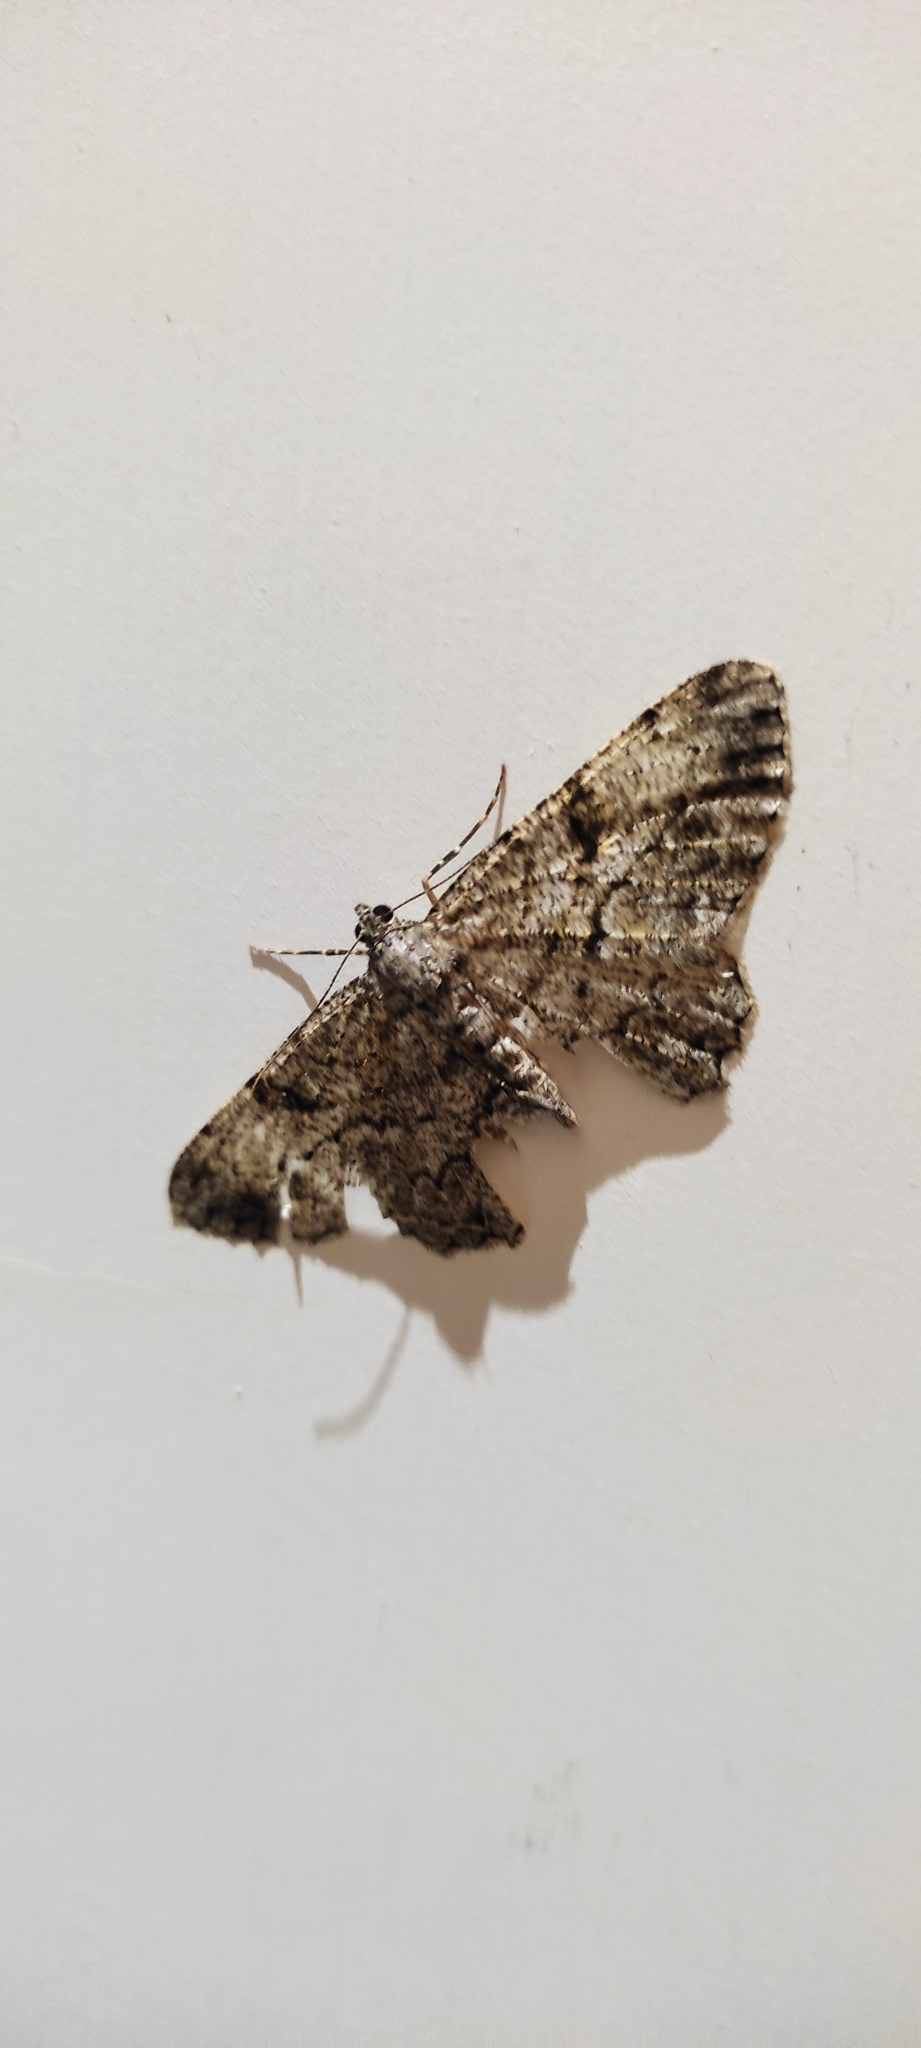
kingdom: Animalia
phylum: Arthropoda
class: Insecta
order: Lepidoptera
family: Geometridae
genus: Peribatodes
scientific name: Peribatodes rhomboidaria
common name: Willow beauty
